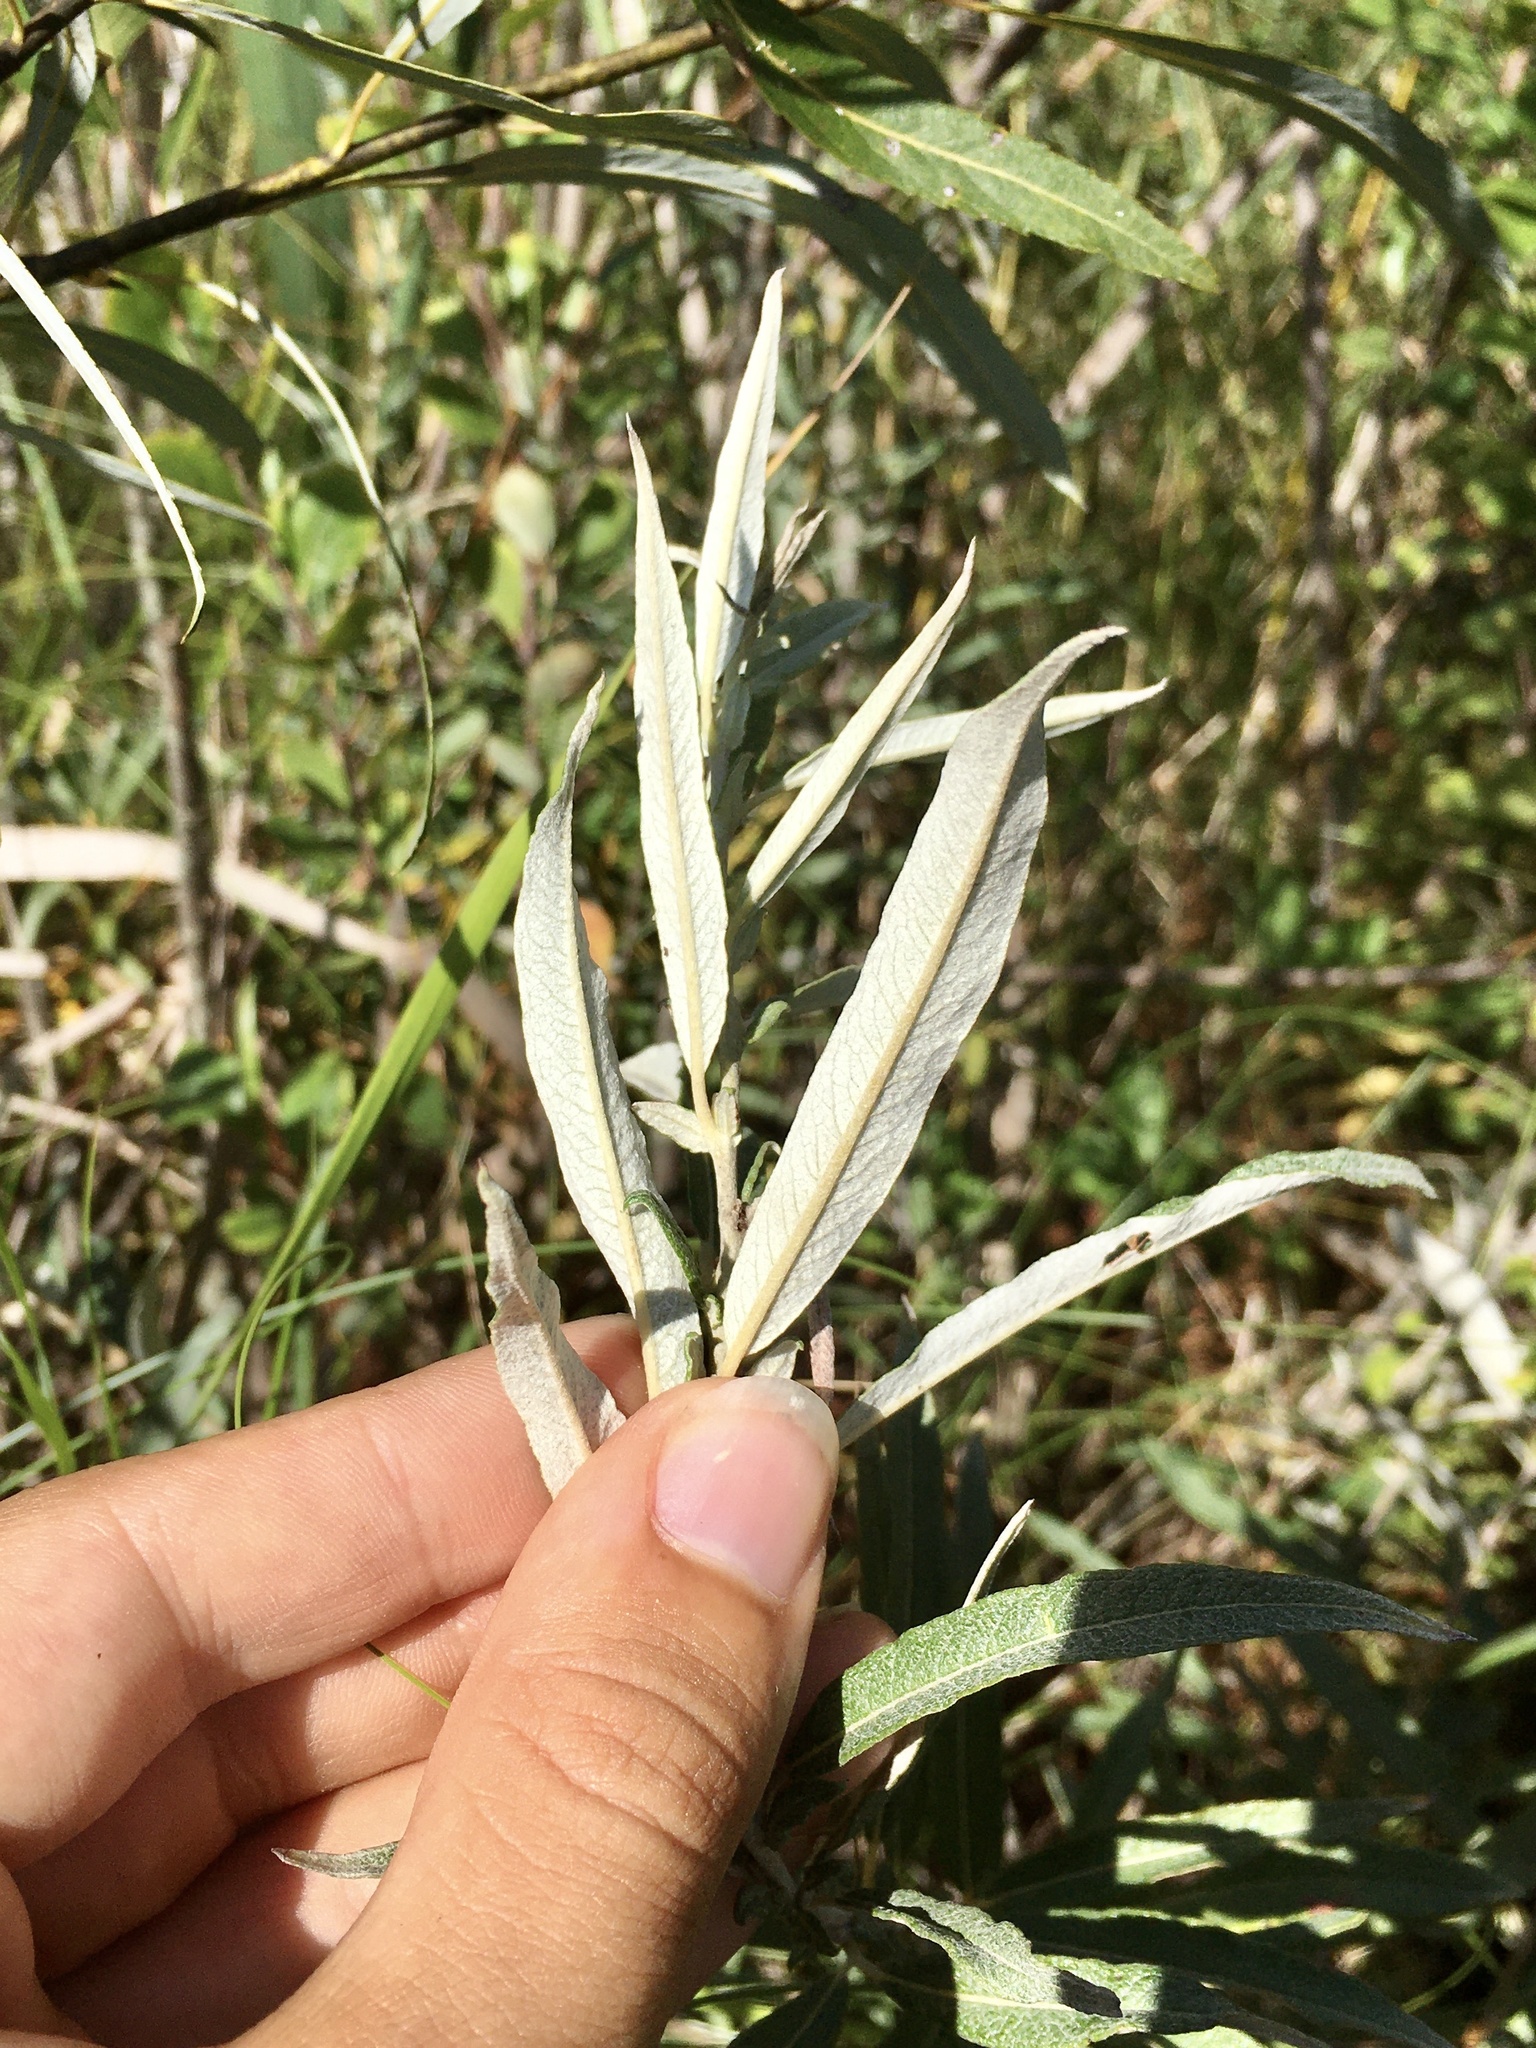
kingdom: Plantae
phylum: Tracheophyta
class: Magnoliopsida
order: Malpighiales
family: Salicaceae
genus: Salix
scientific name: Salix candida
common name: Hoary willow
